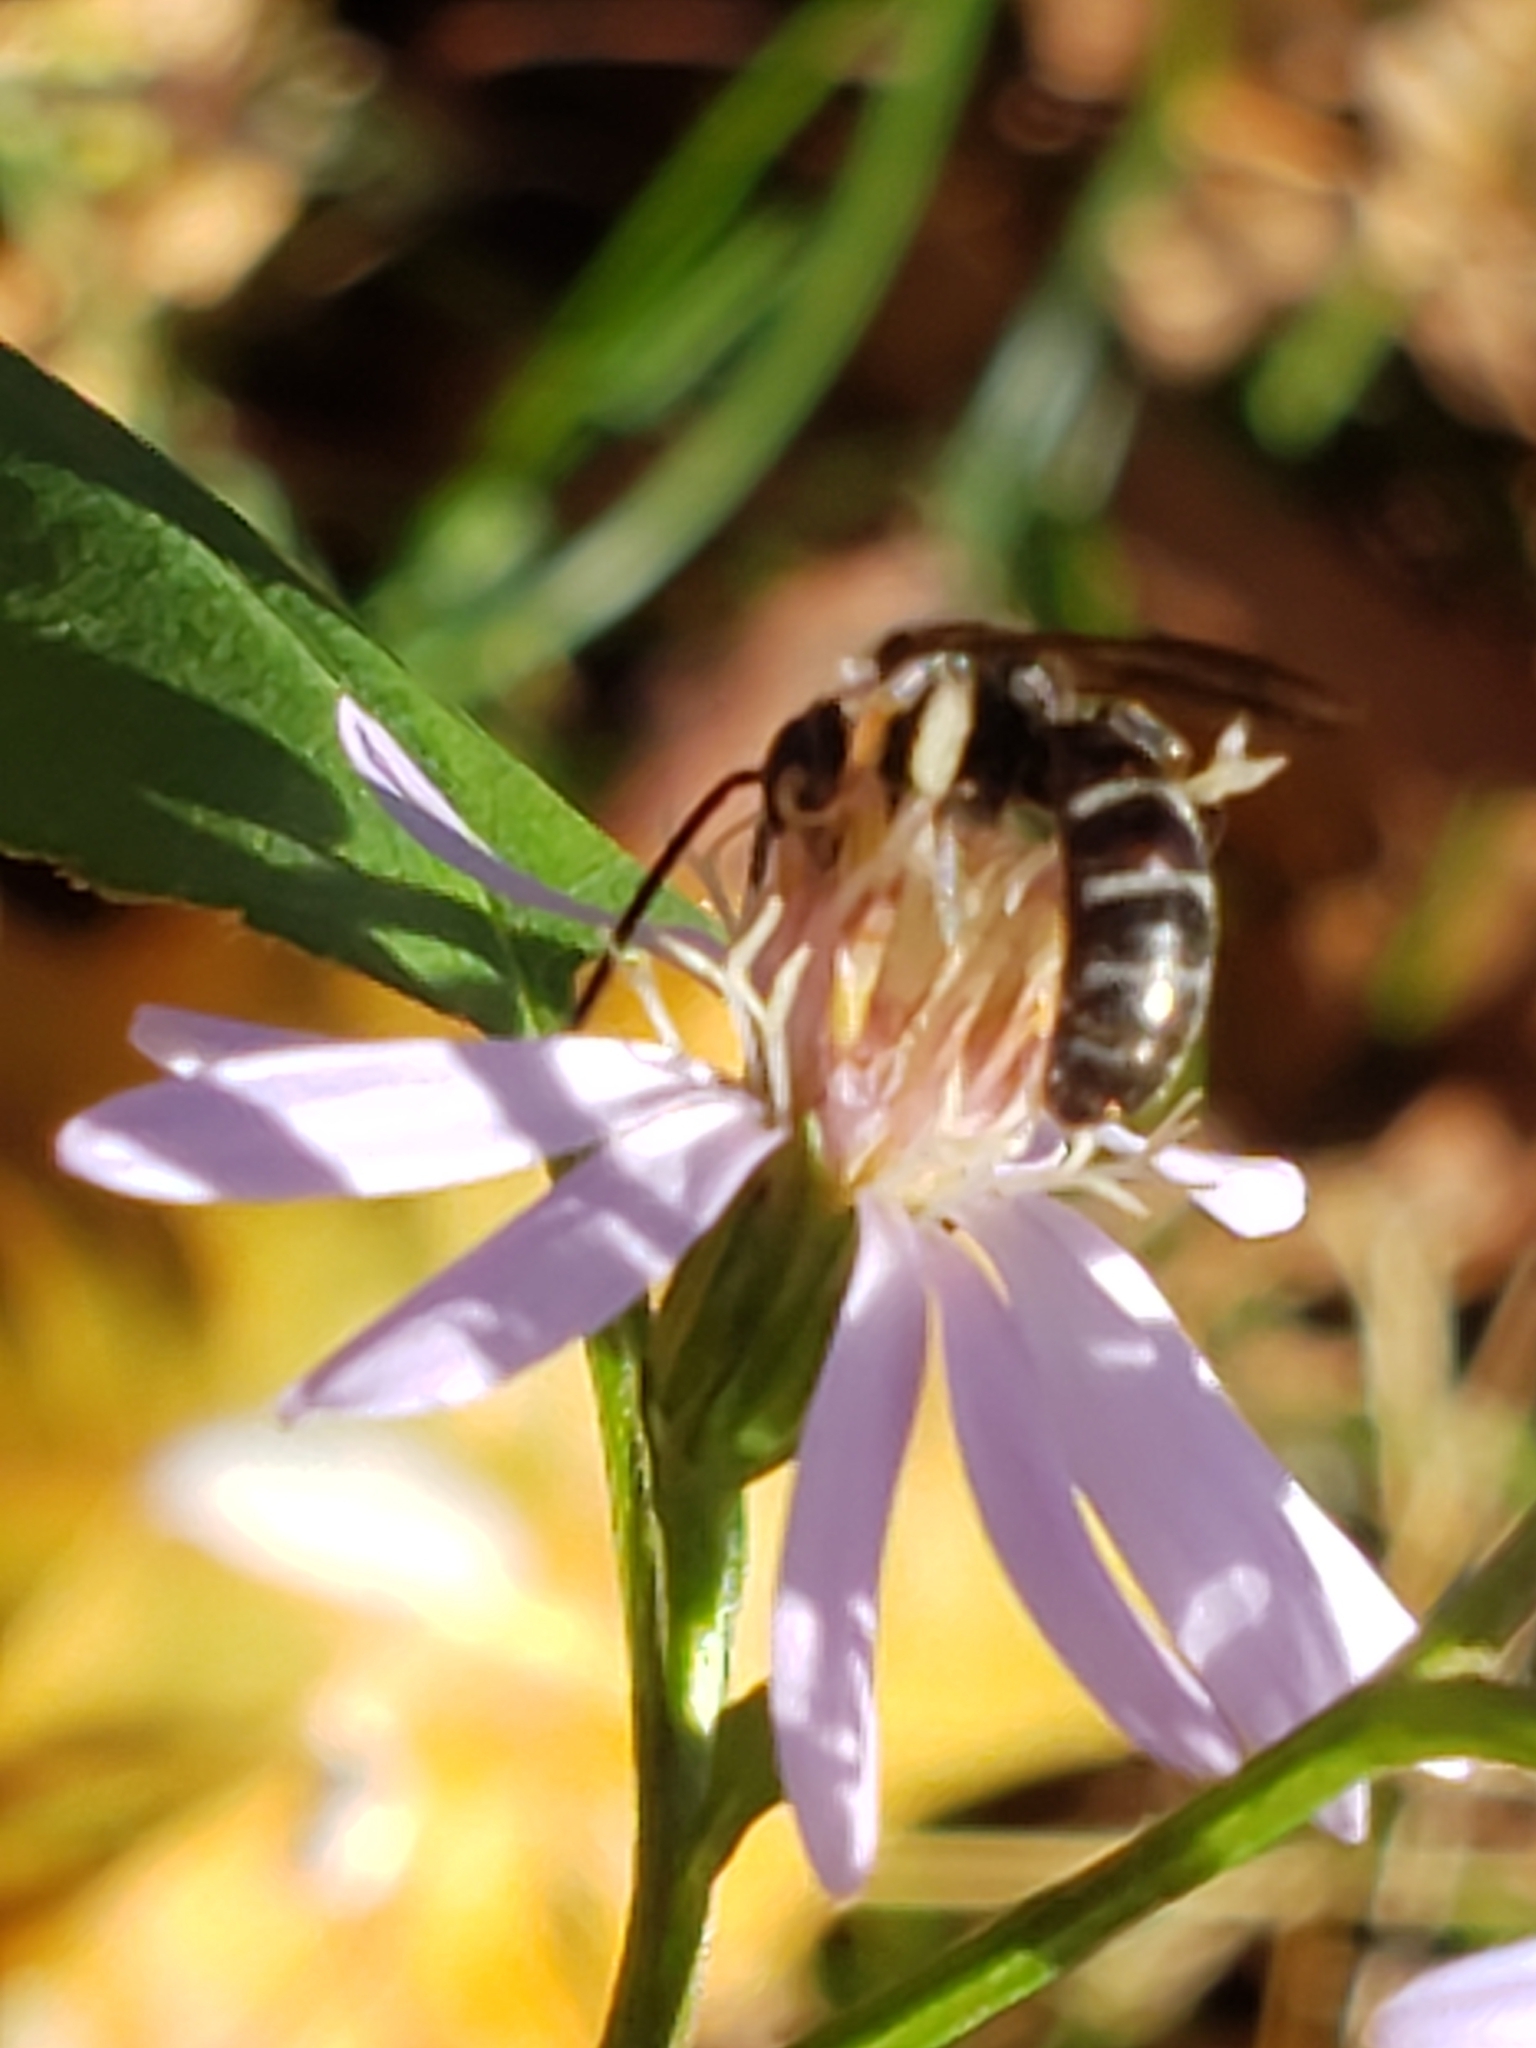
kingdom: Animalia
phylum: Arthropoda
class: Insecta
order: Hymenoptera
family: Halictidae
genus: Lasioglossum
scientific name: Lasioglossum fuscipenne
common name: Brown-winged sweat bee
